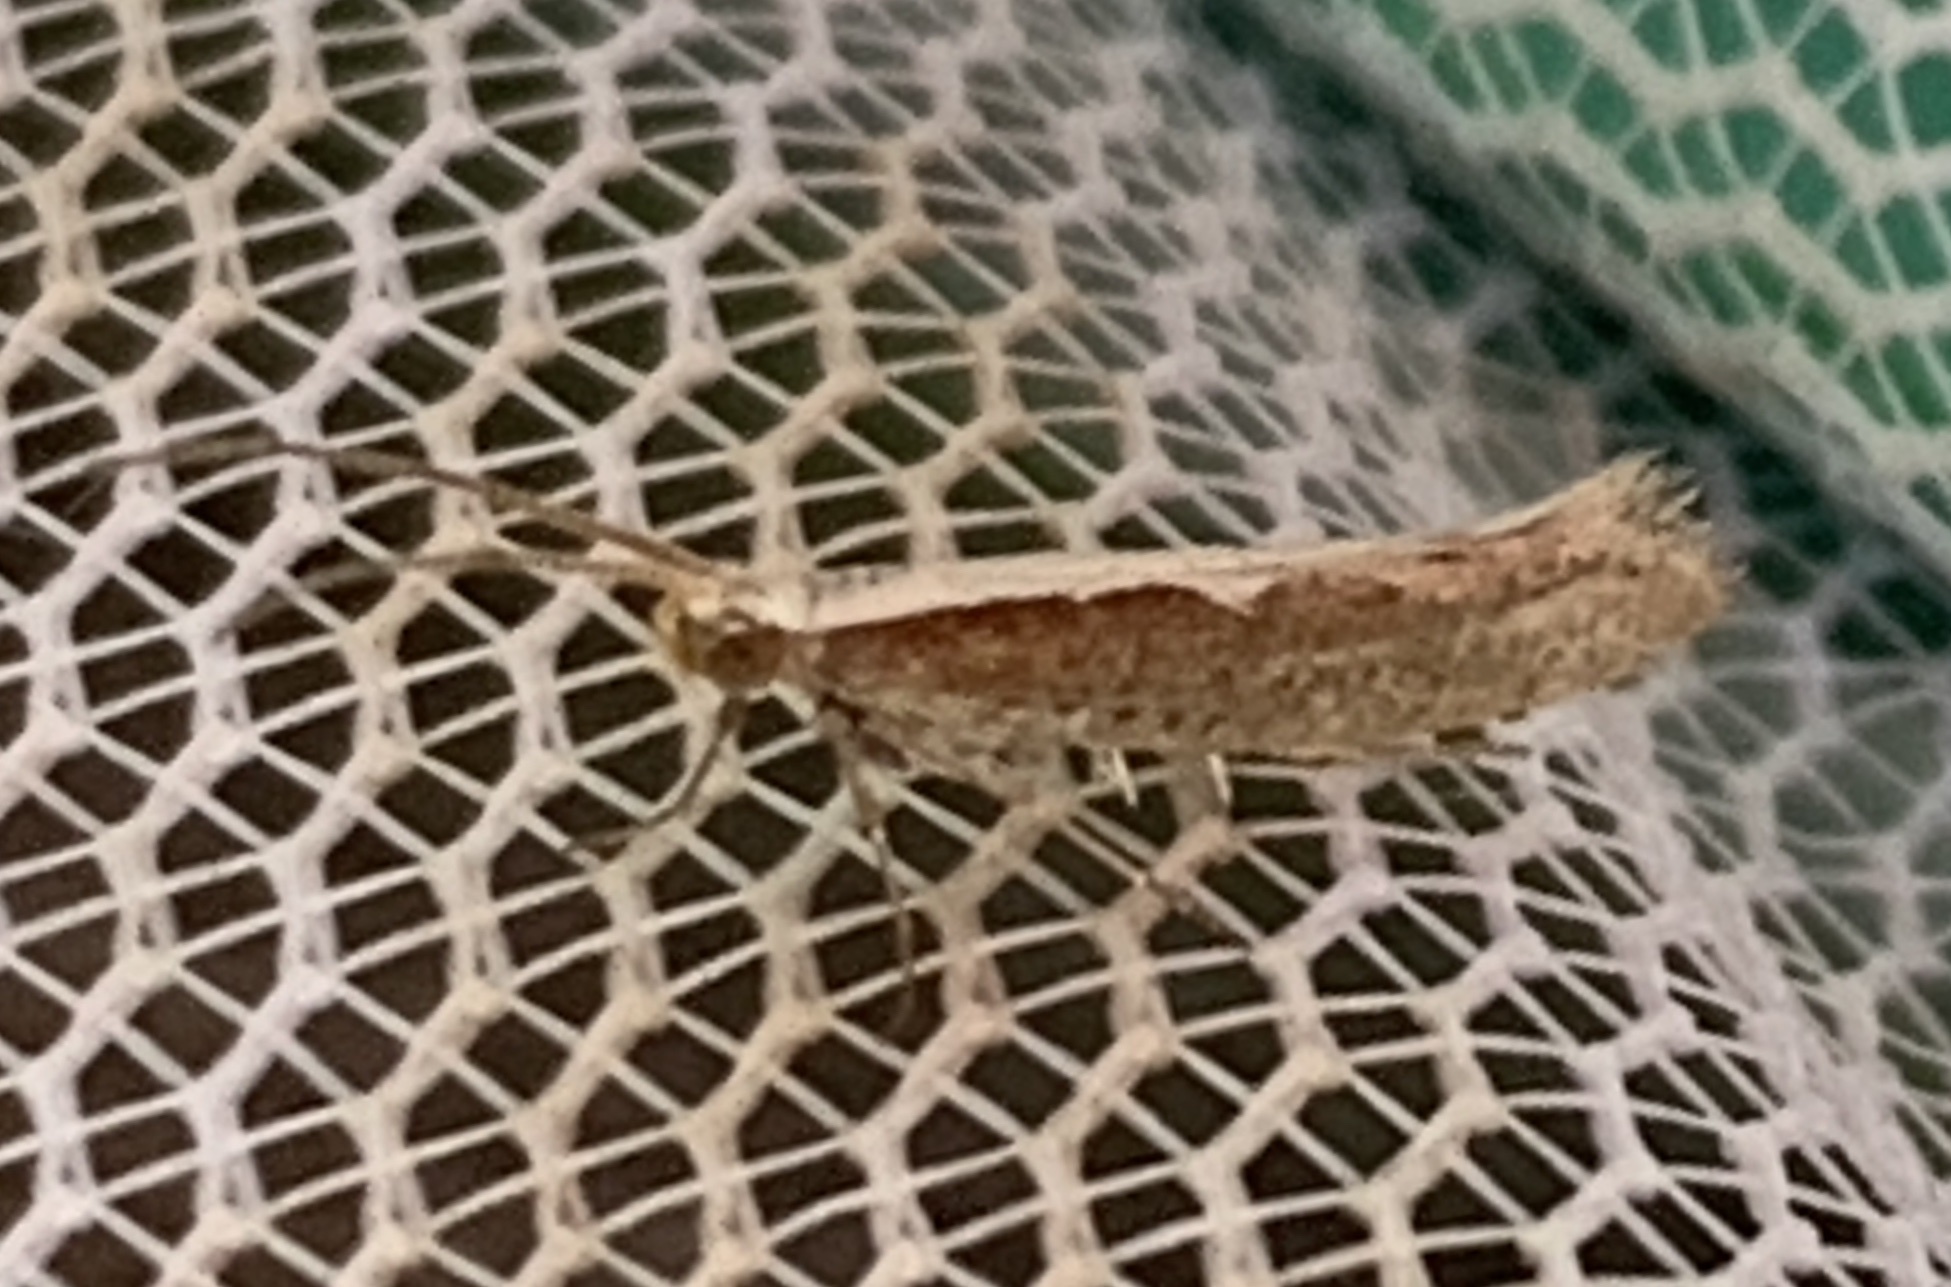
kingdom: Animalia
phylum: Arthropoda
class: Insecta
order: Lepidoptera
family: Plutellidae
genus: Plutella
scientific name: Plutella xylostella
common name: Diamond-back moth
